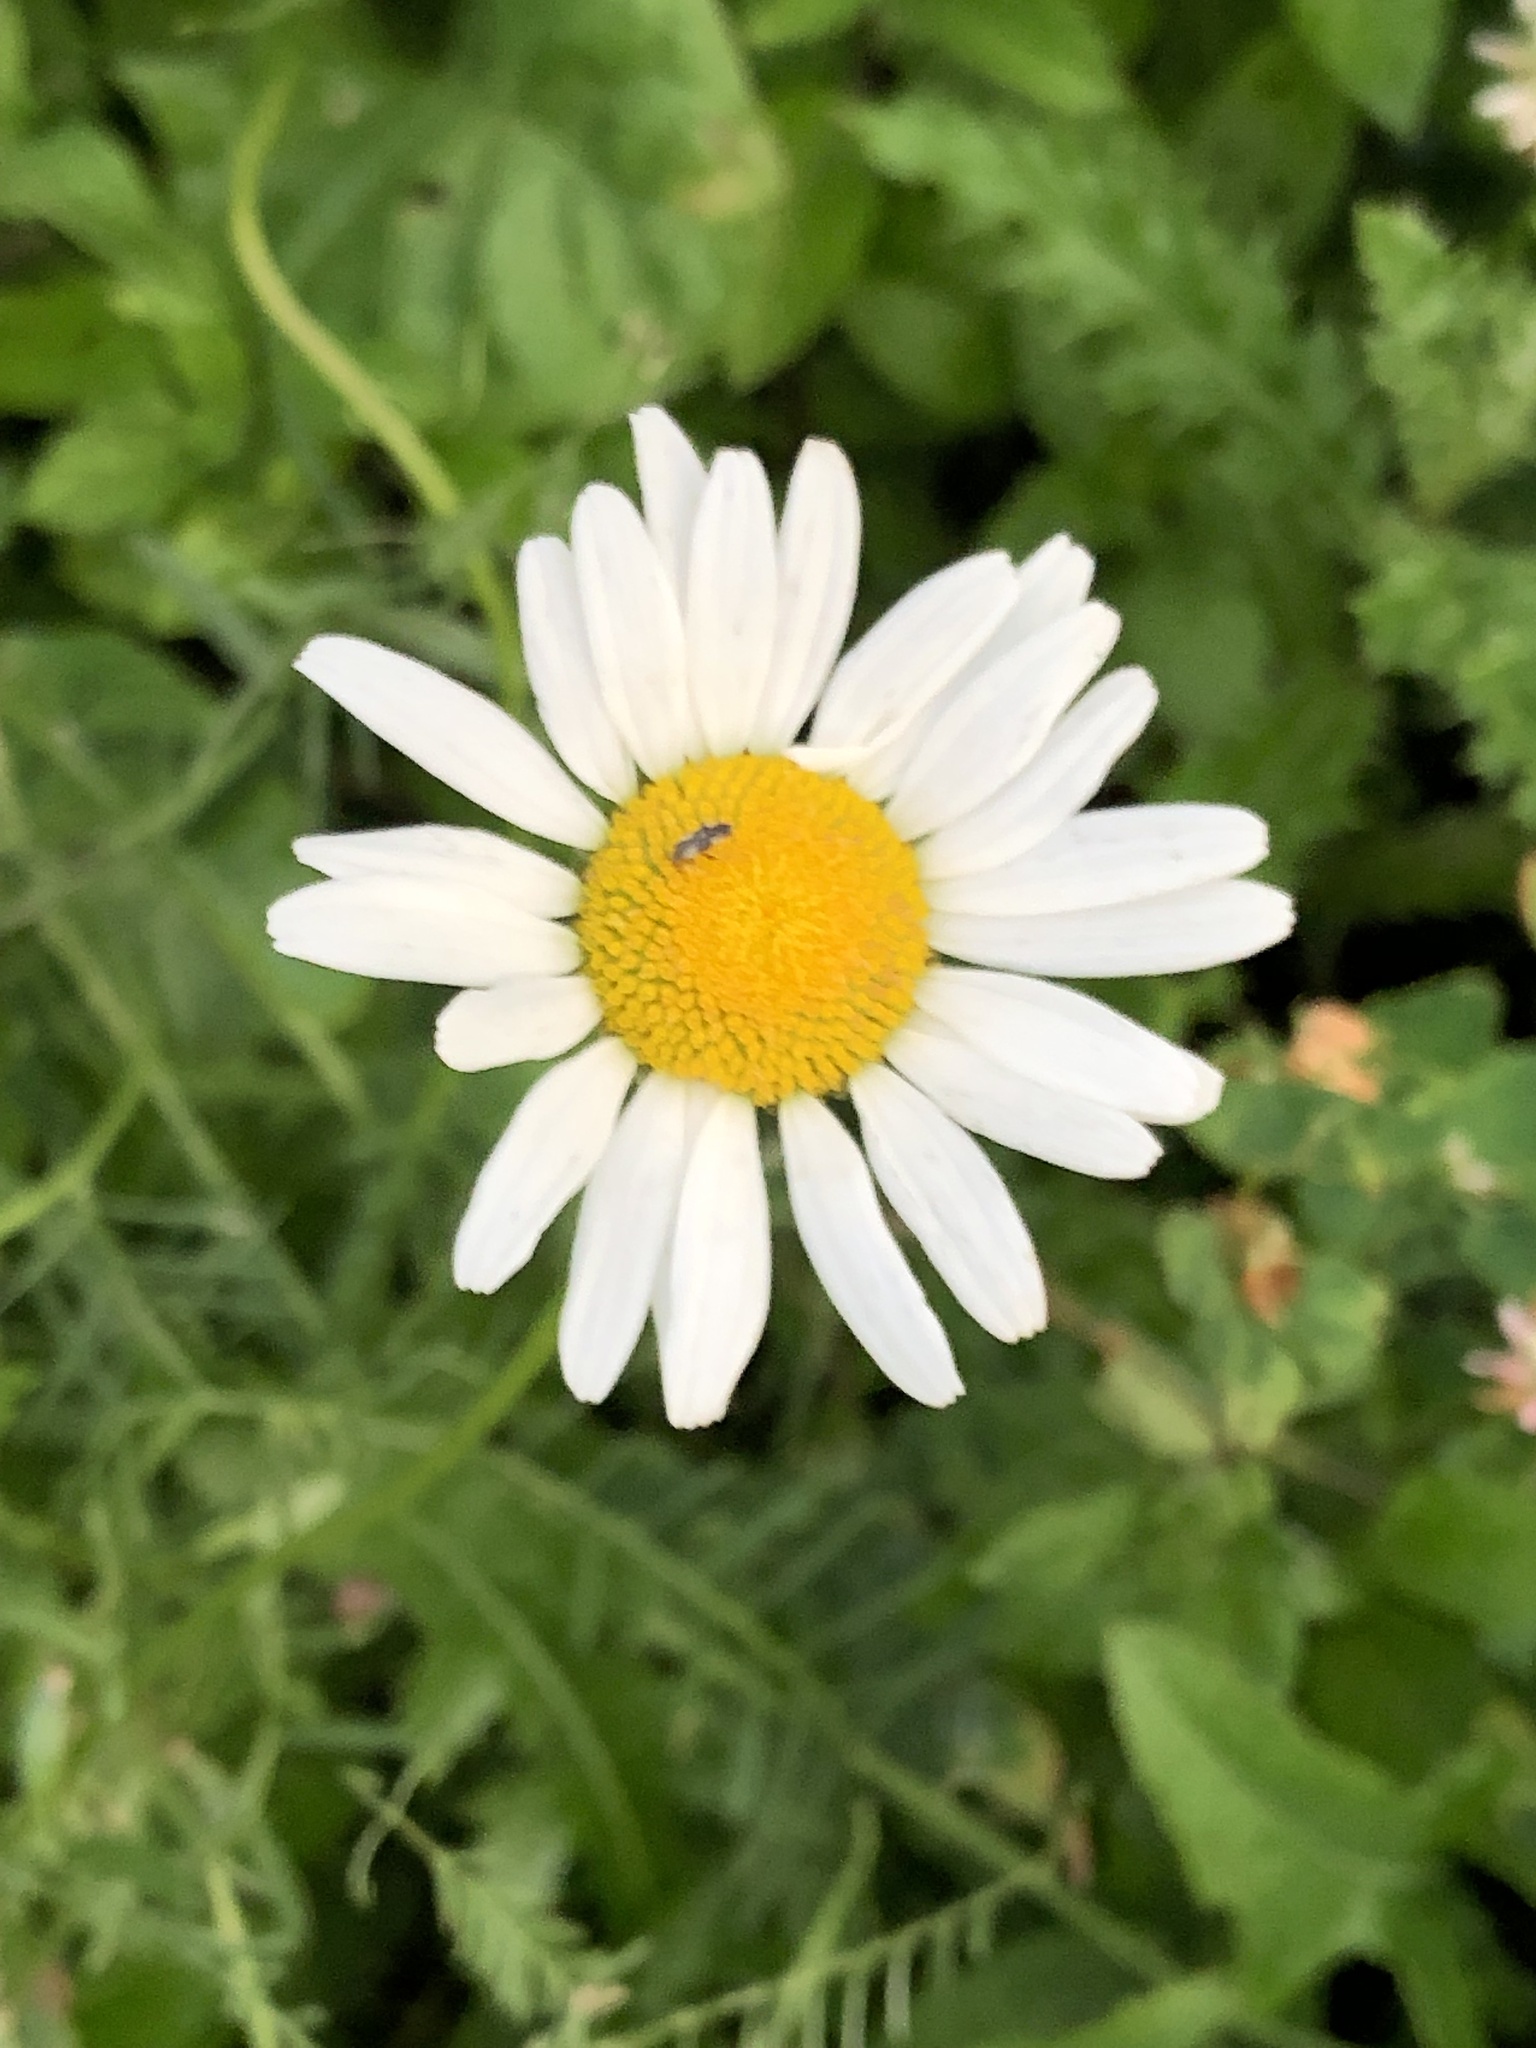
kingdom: Plantae
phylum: Tracheophyta
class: Magnoliopsida
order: Asterales
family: Asteraceae
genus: Leucanthemum
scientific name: Leucanthemum vulgare
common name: Oxeye daisy
